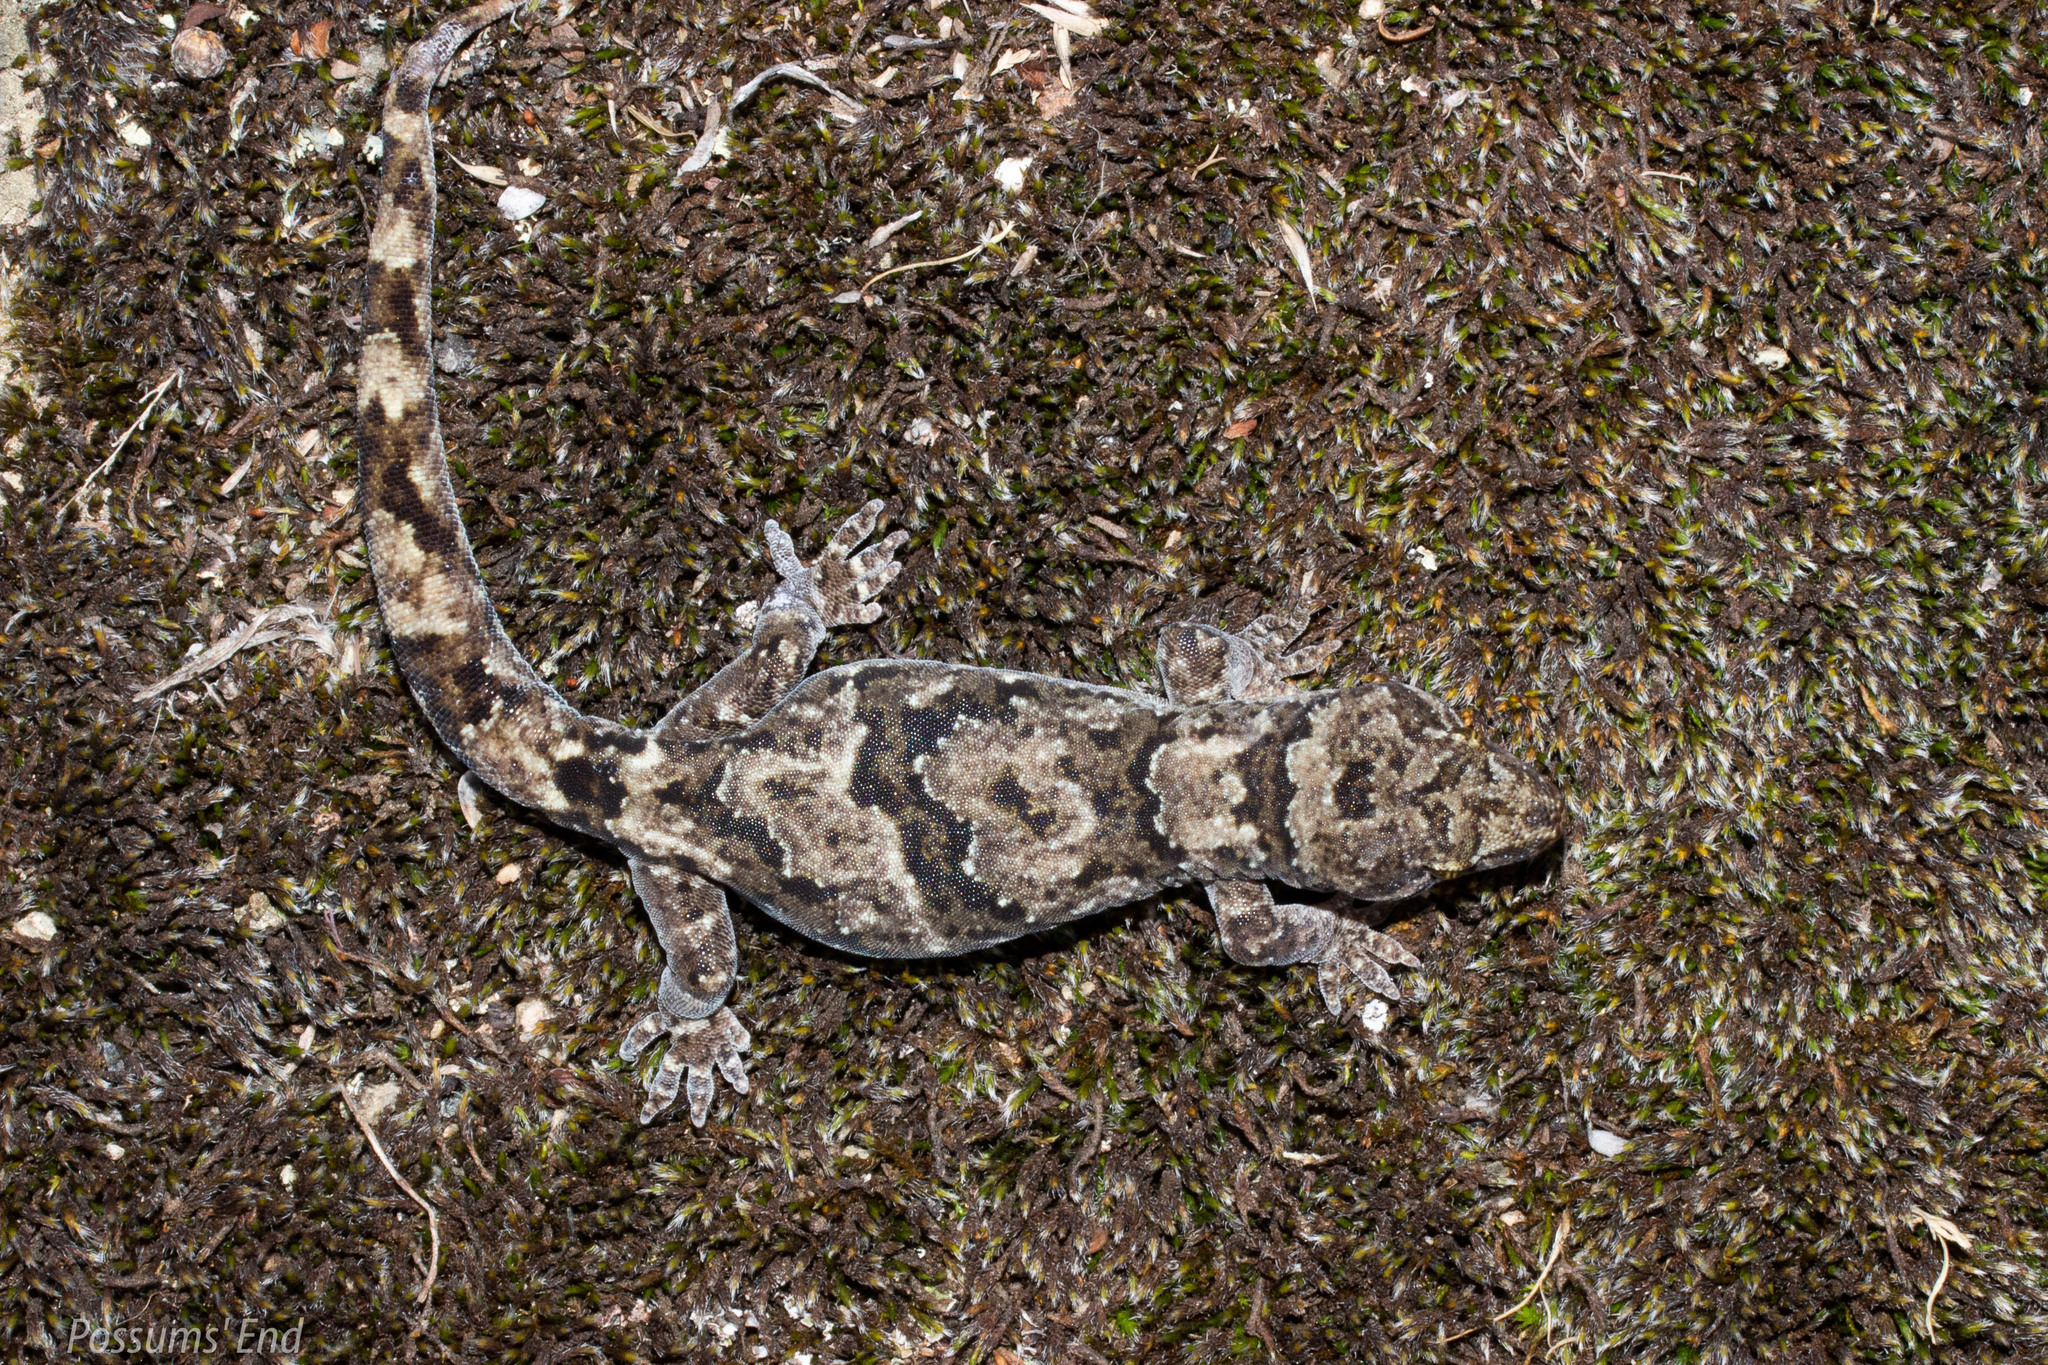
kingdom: Animalia
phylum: Chordata
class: Squamata
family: Diplodactylidae
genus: Woodworthia
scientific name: Woodworthia
